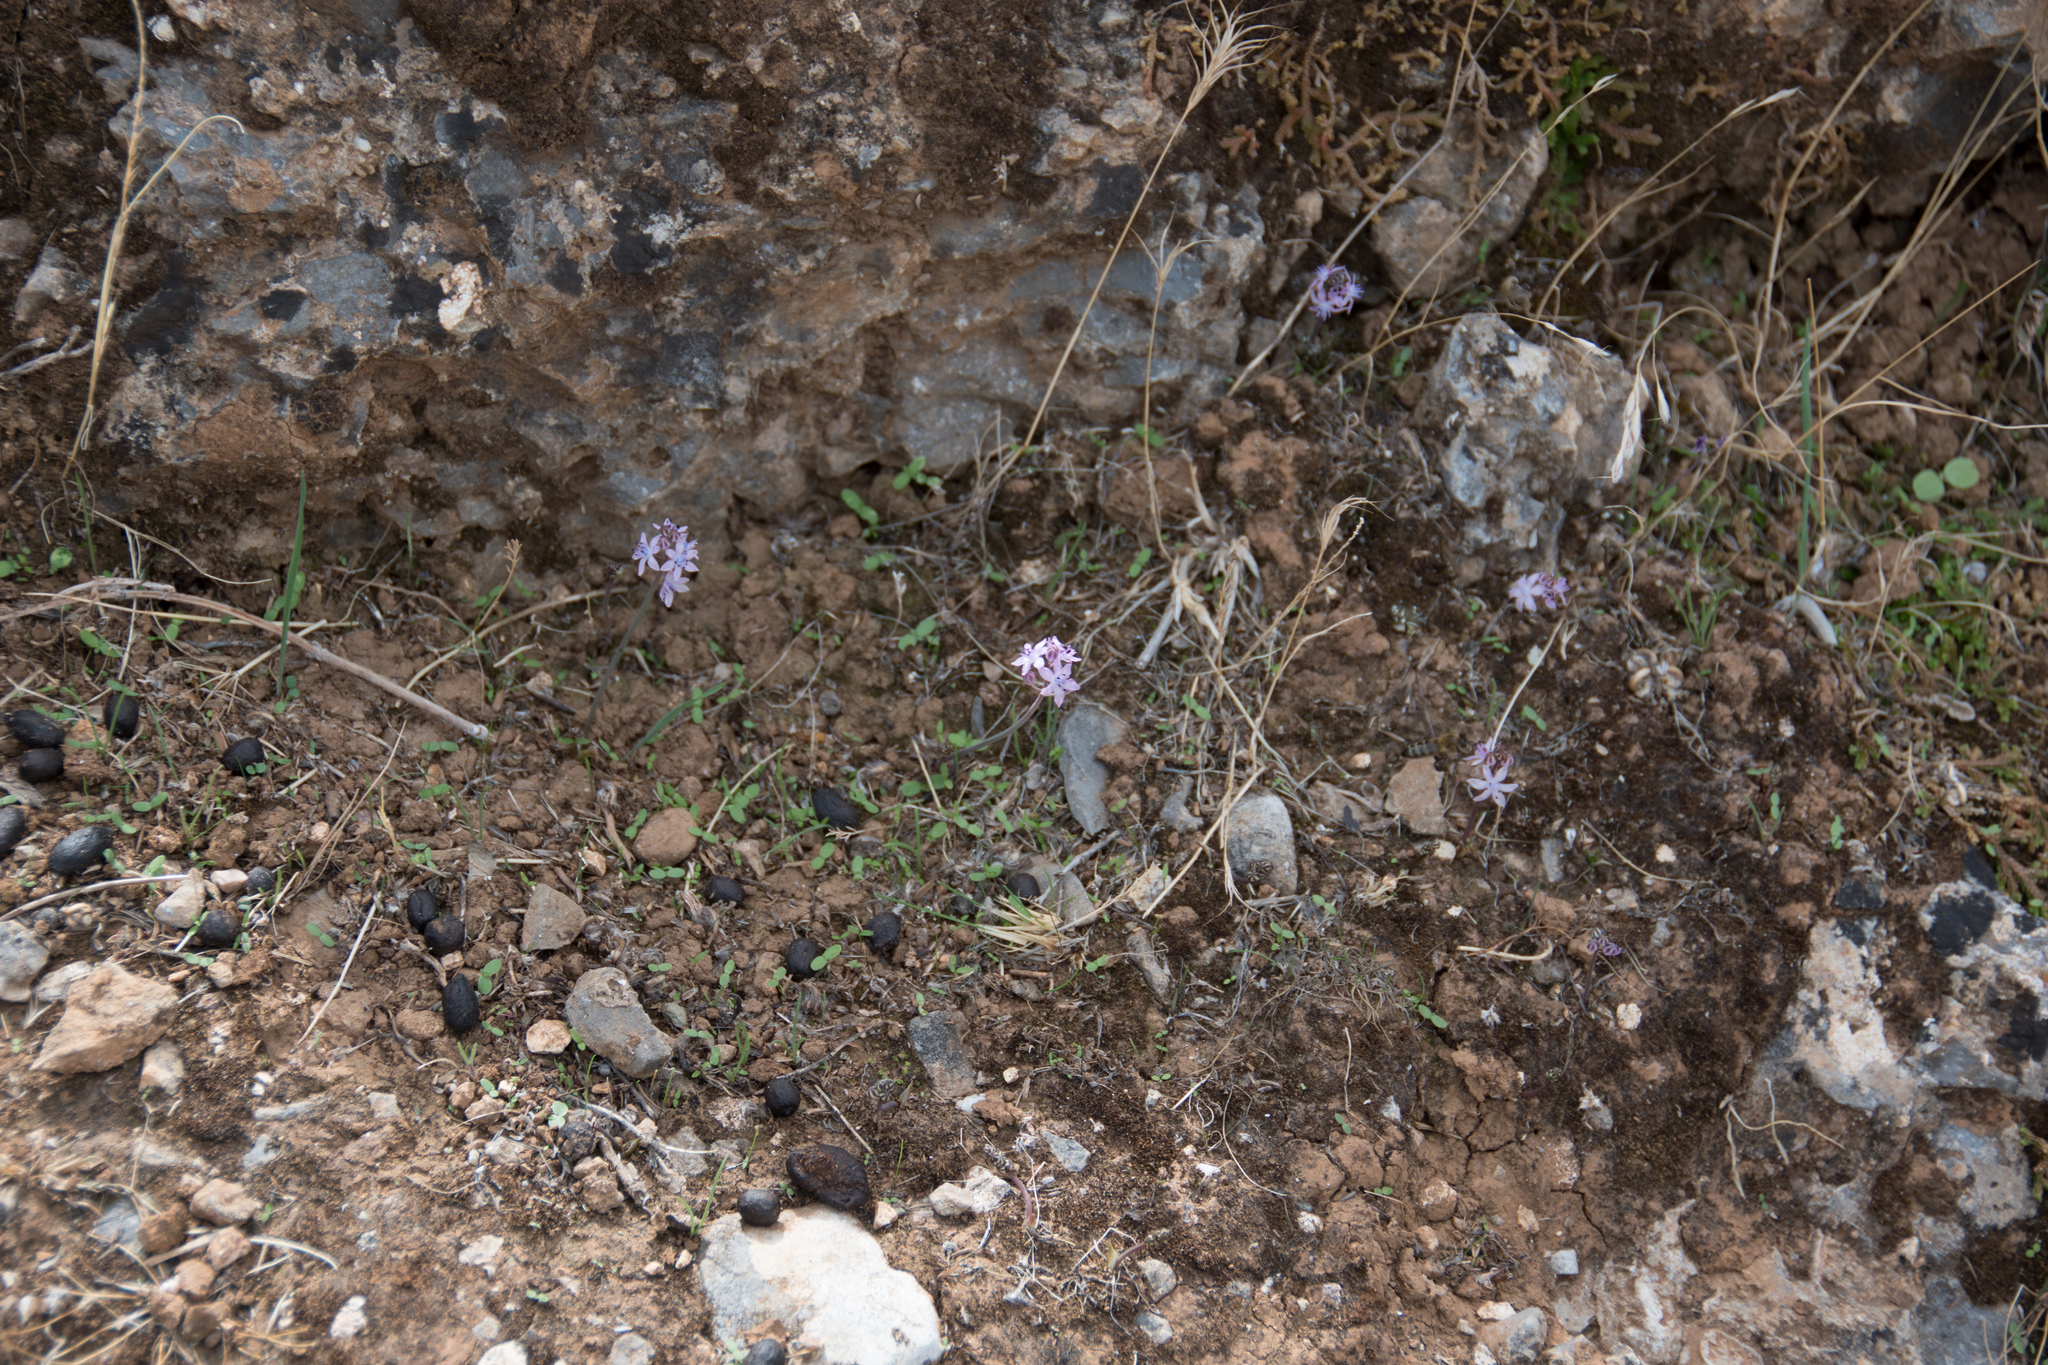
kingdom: Plantae
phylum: Tracheophyta
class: Liliopsida
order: Asparagales
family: Asparagaceae
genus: Prospero
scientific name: Prospero hierapytnense
